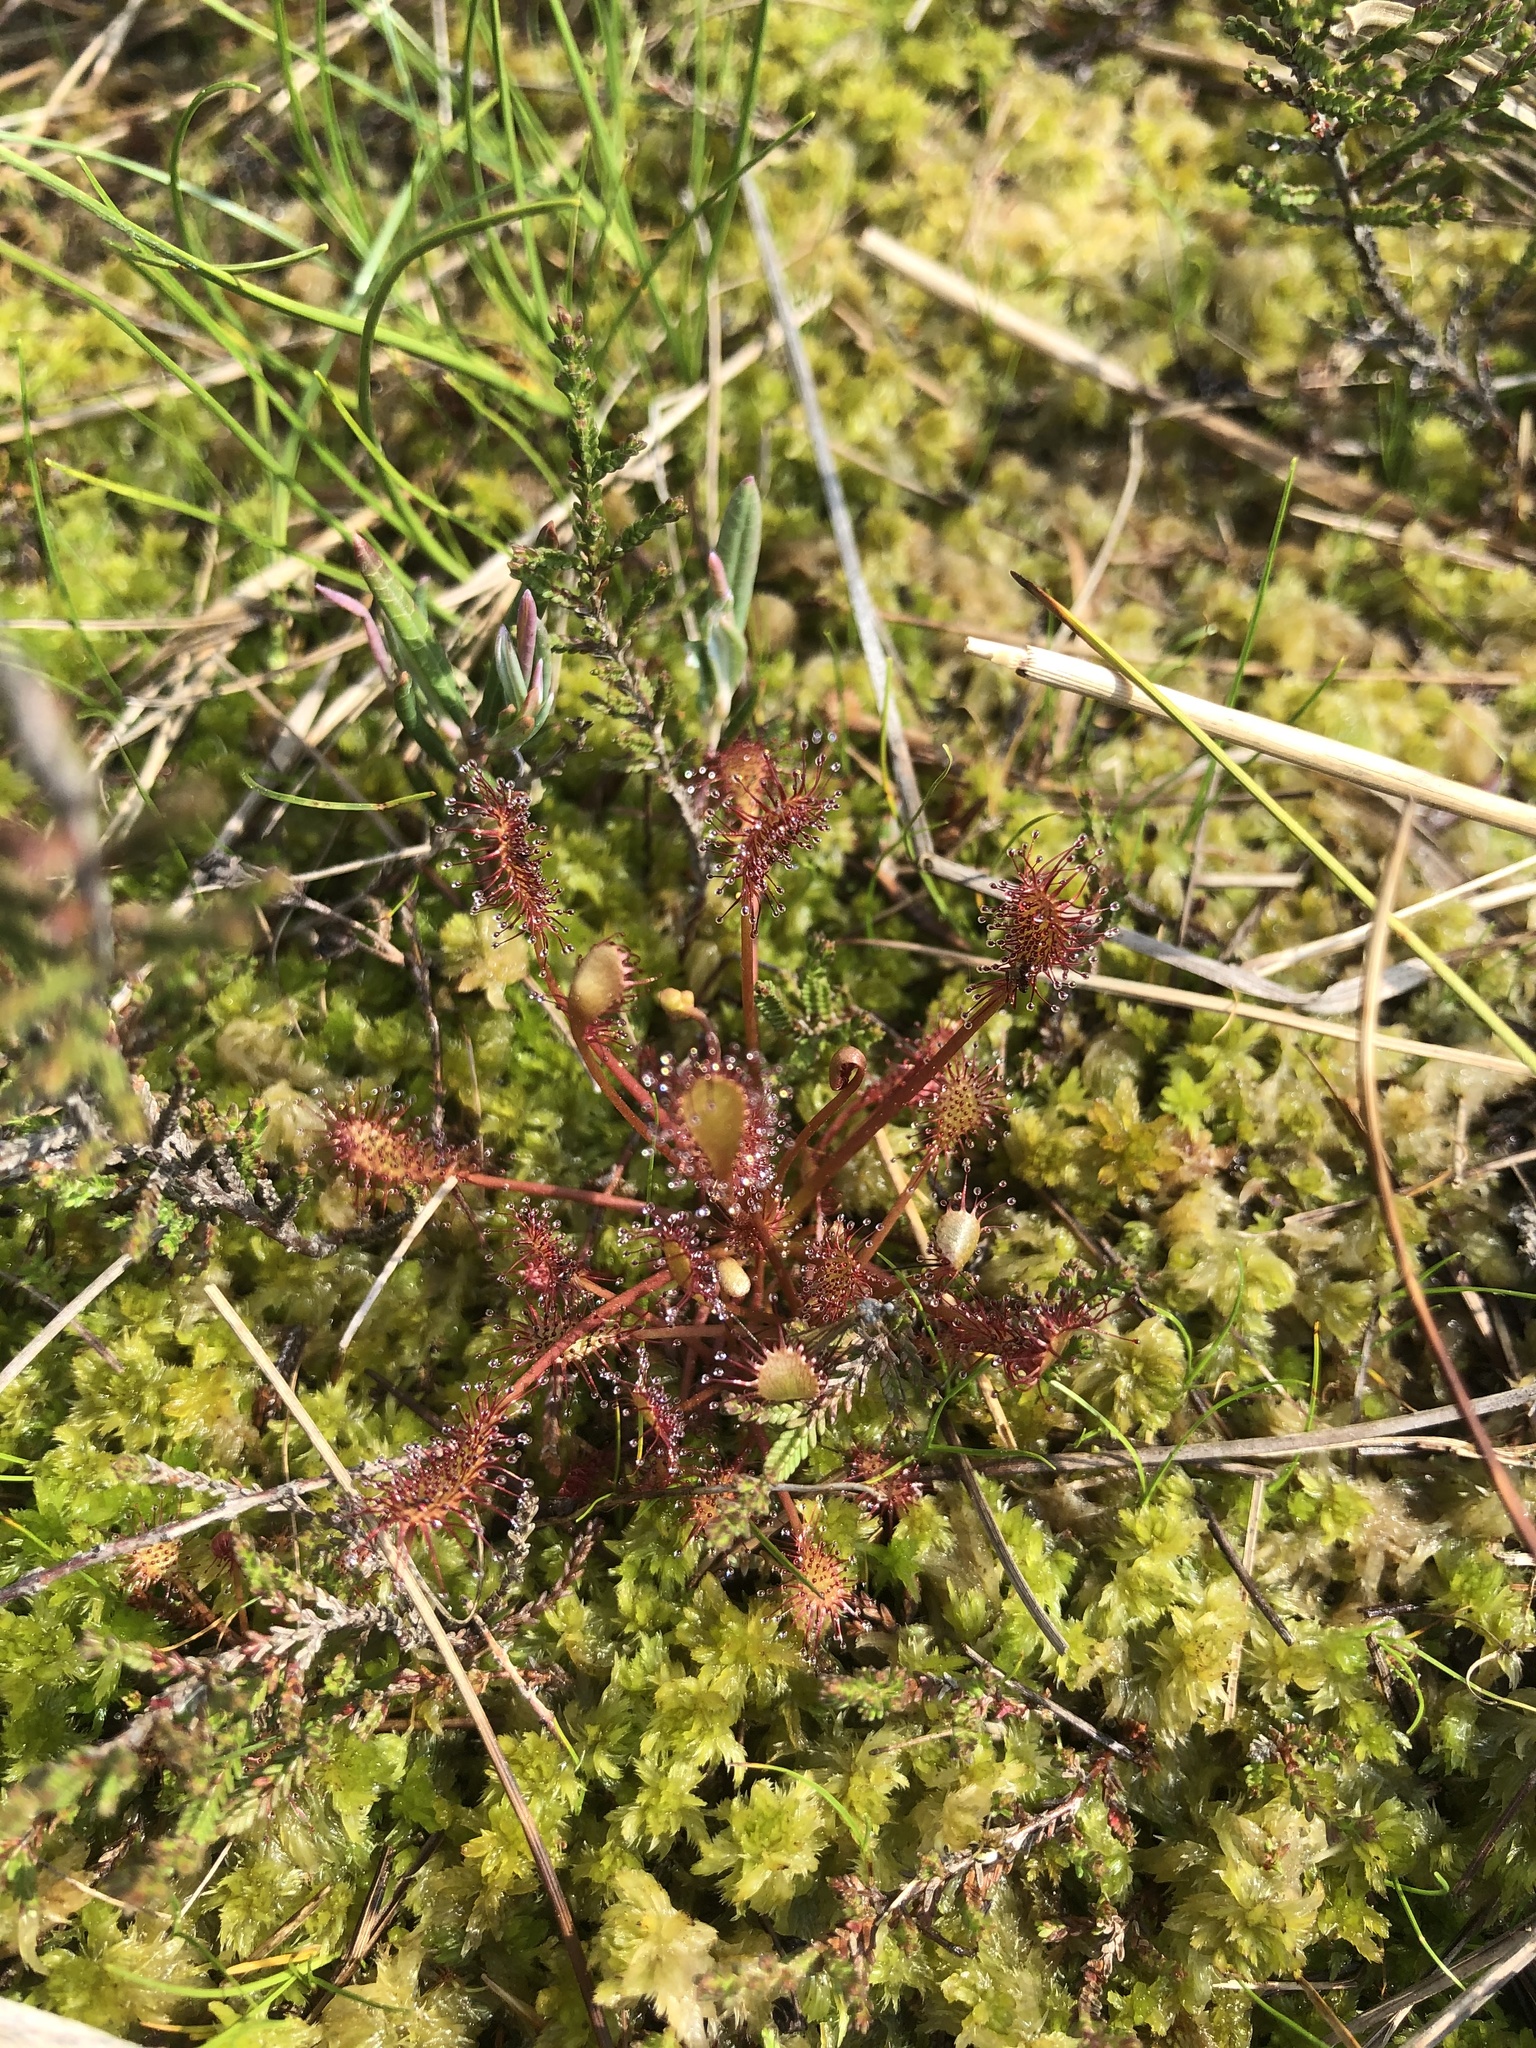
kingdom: Plantae
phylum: Tracheophyta
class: Magnoliopsida
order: Caryophyllales
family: Droseraceae
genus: Drosera
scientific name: Drosera intermedia
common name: Oblong-leaved sundew
